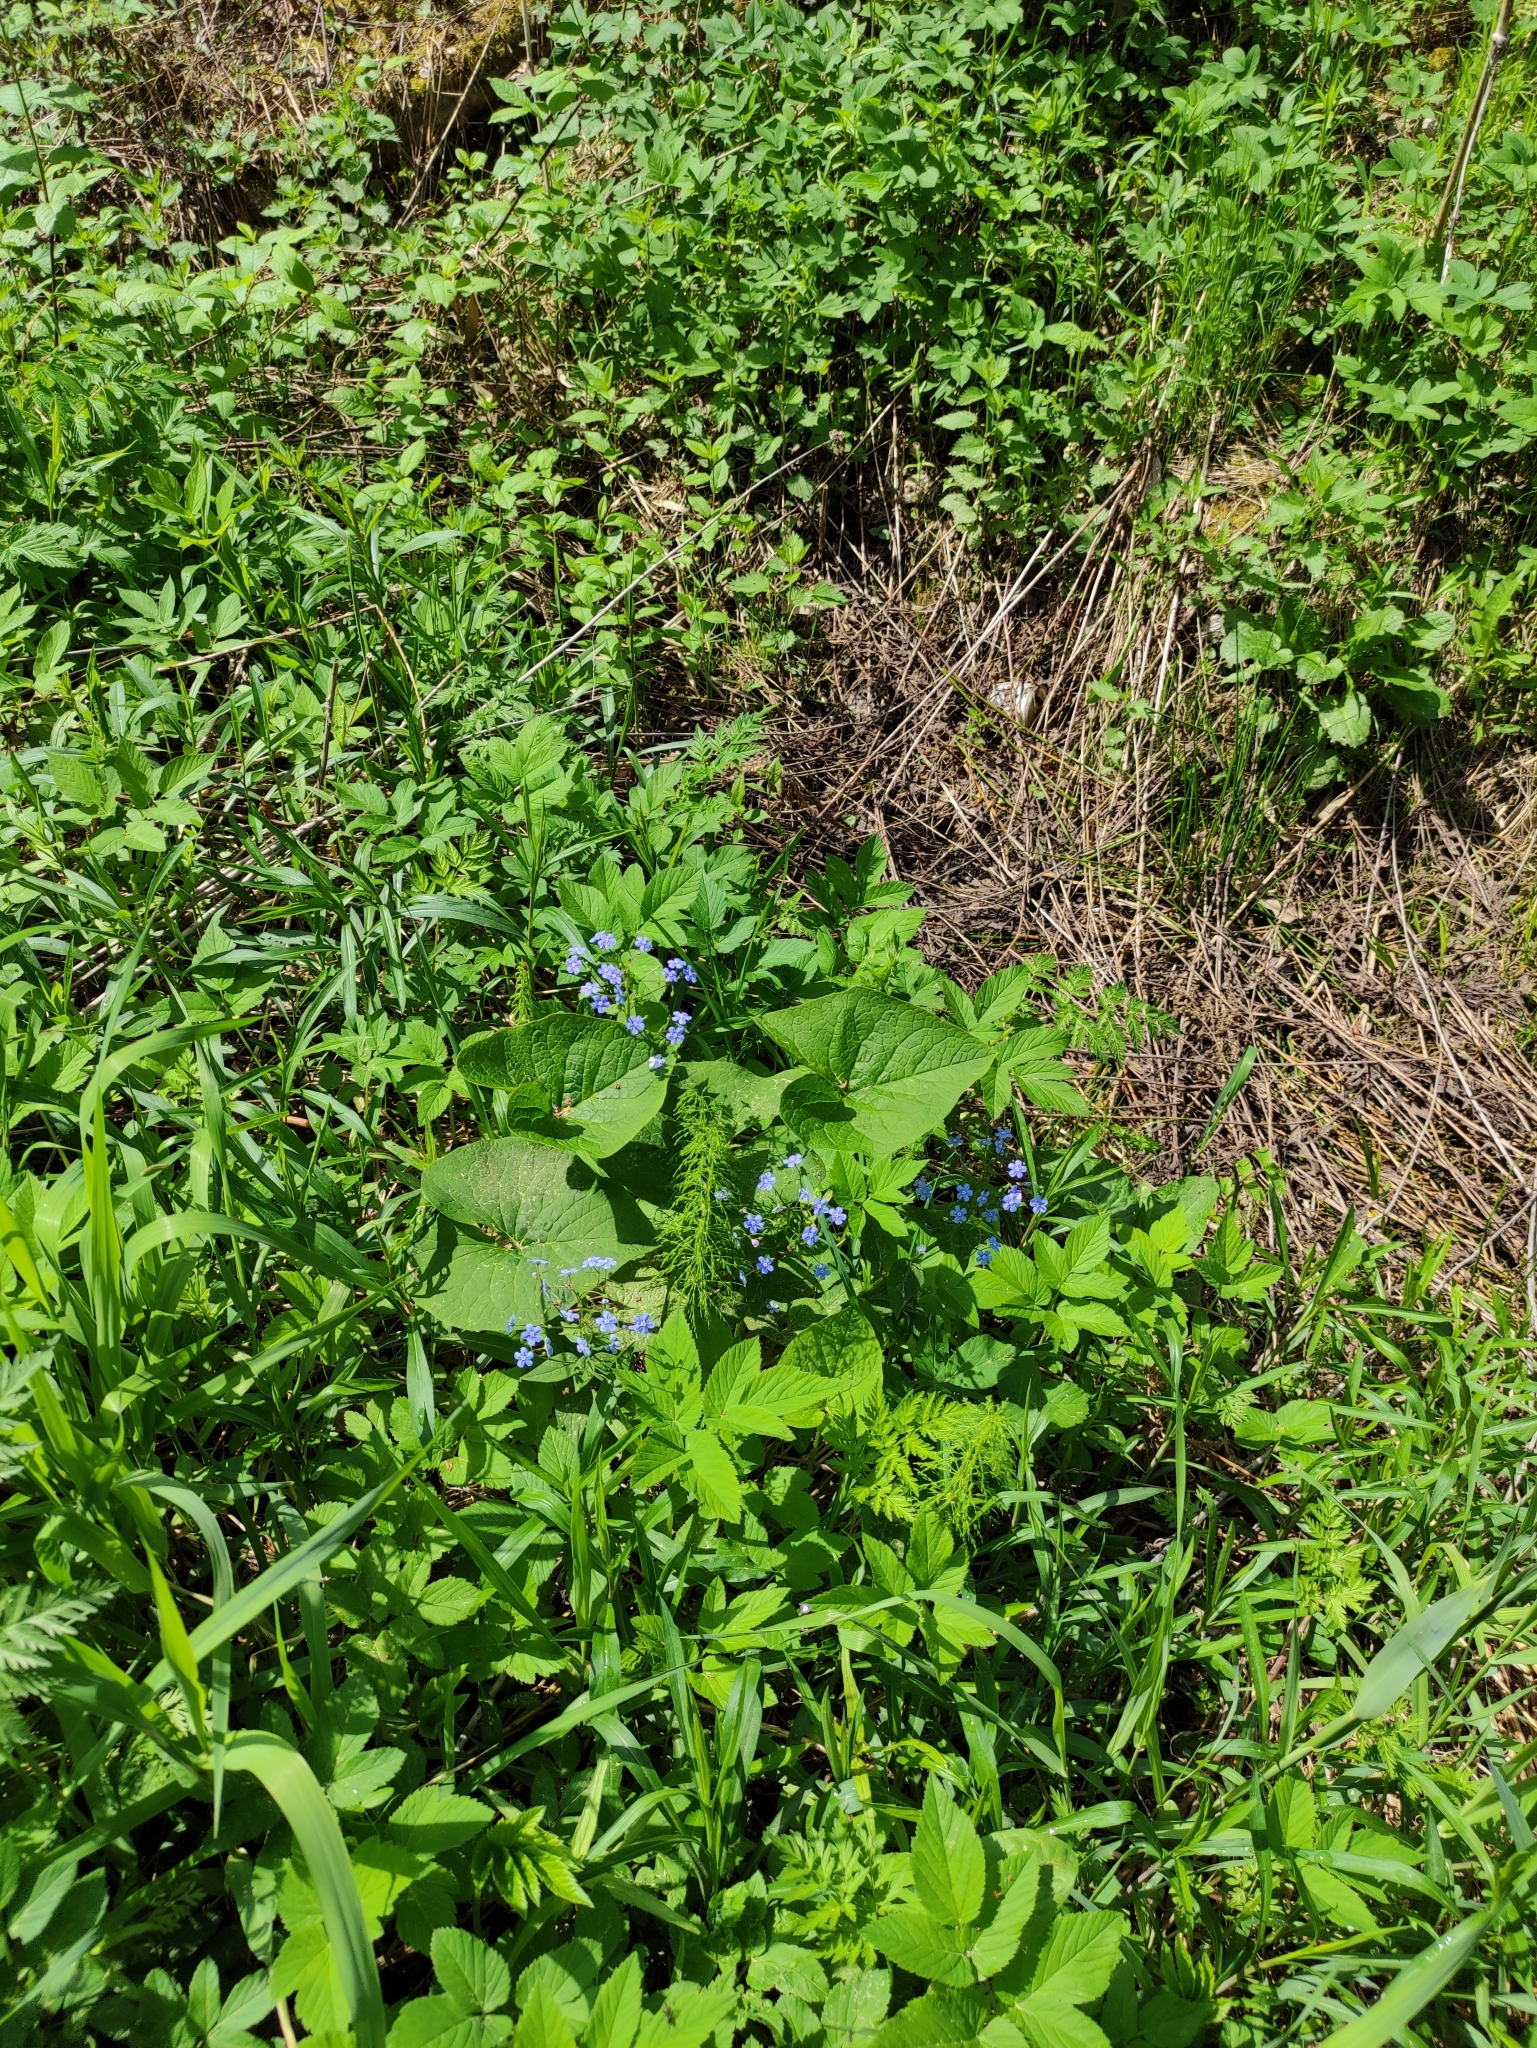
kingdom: Plantae
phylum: Tracheophyta
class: Magnoliopsida
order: Boraginales
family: Boraginaceae
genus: Brunnera
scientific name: Brunnera sibirica
